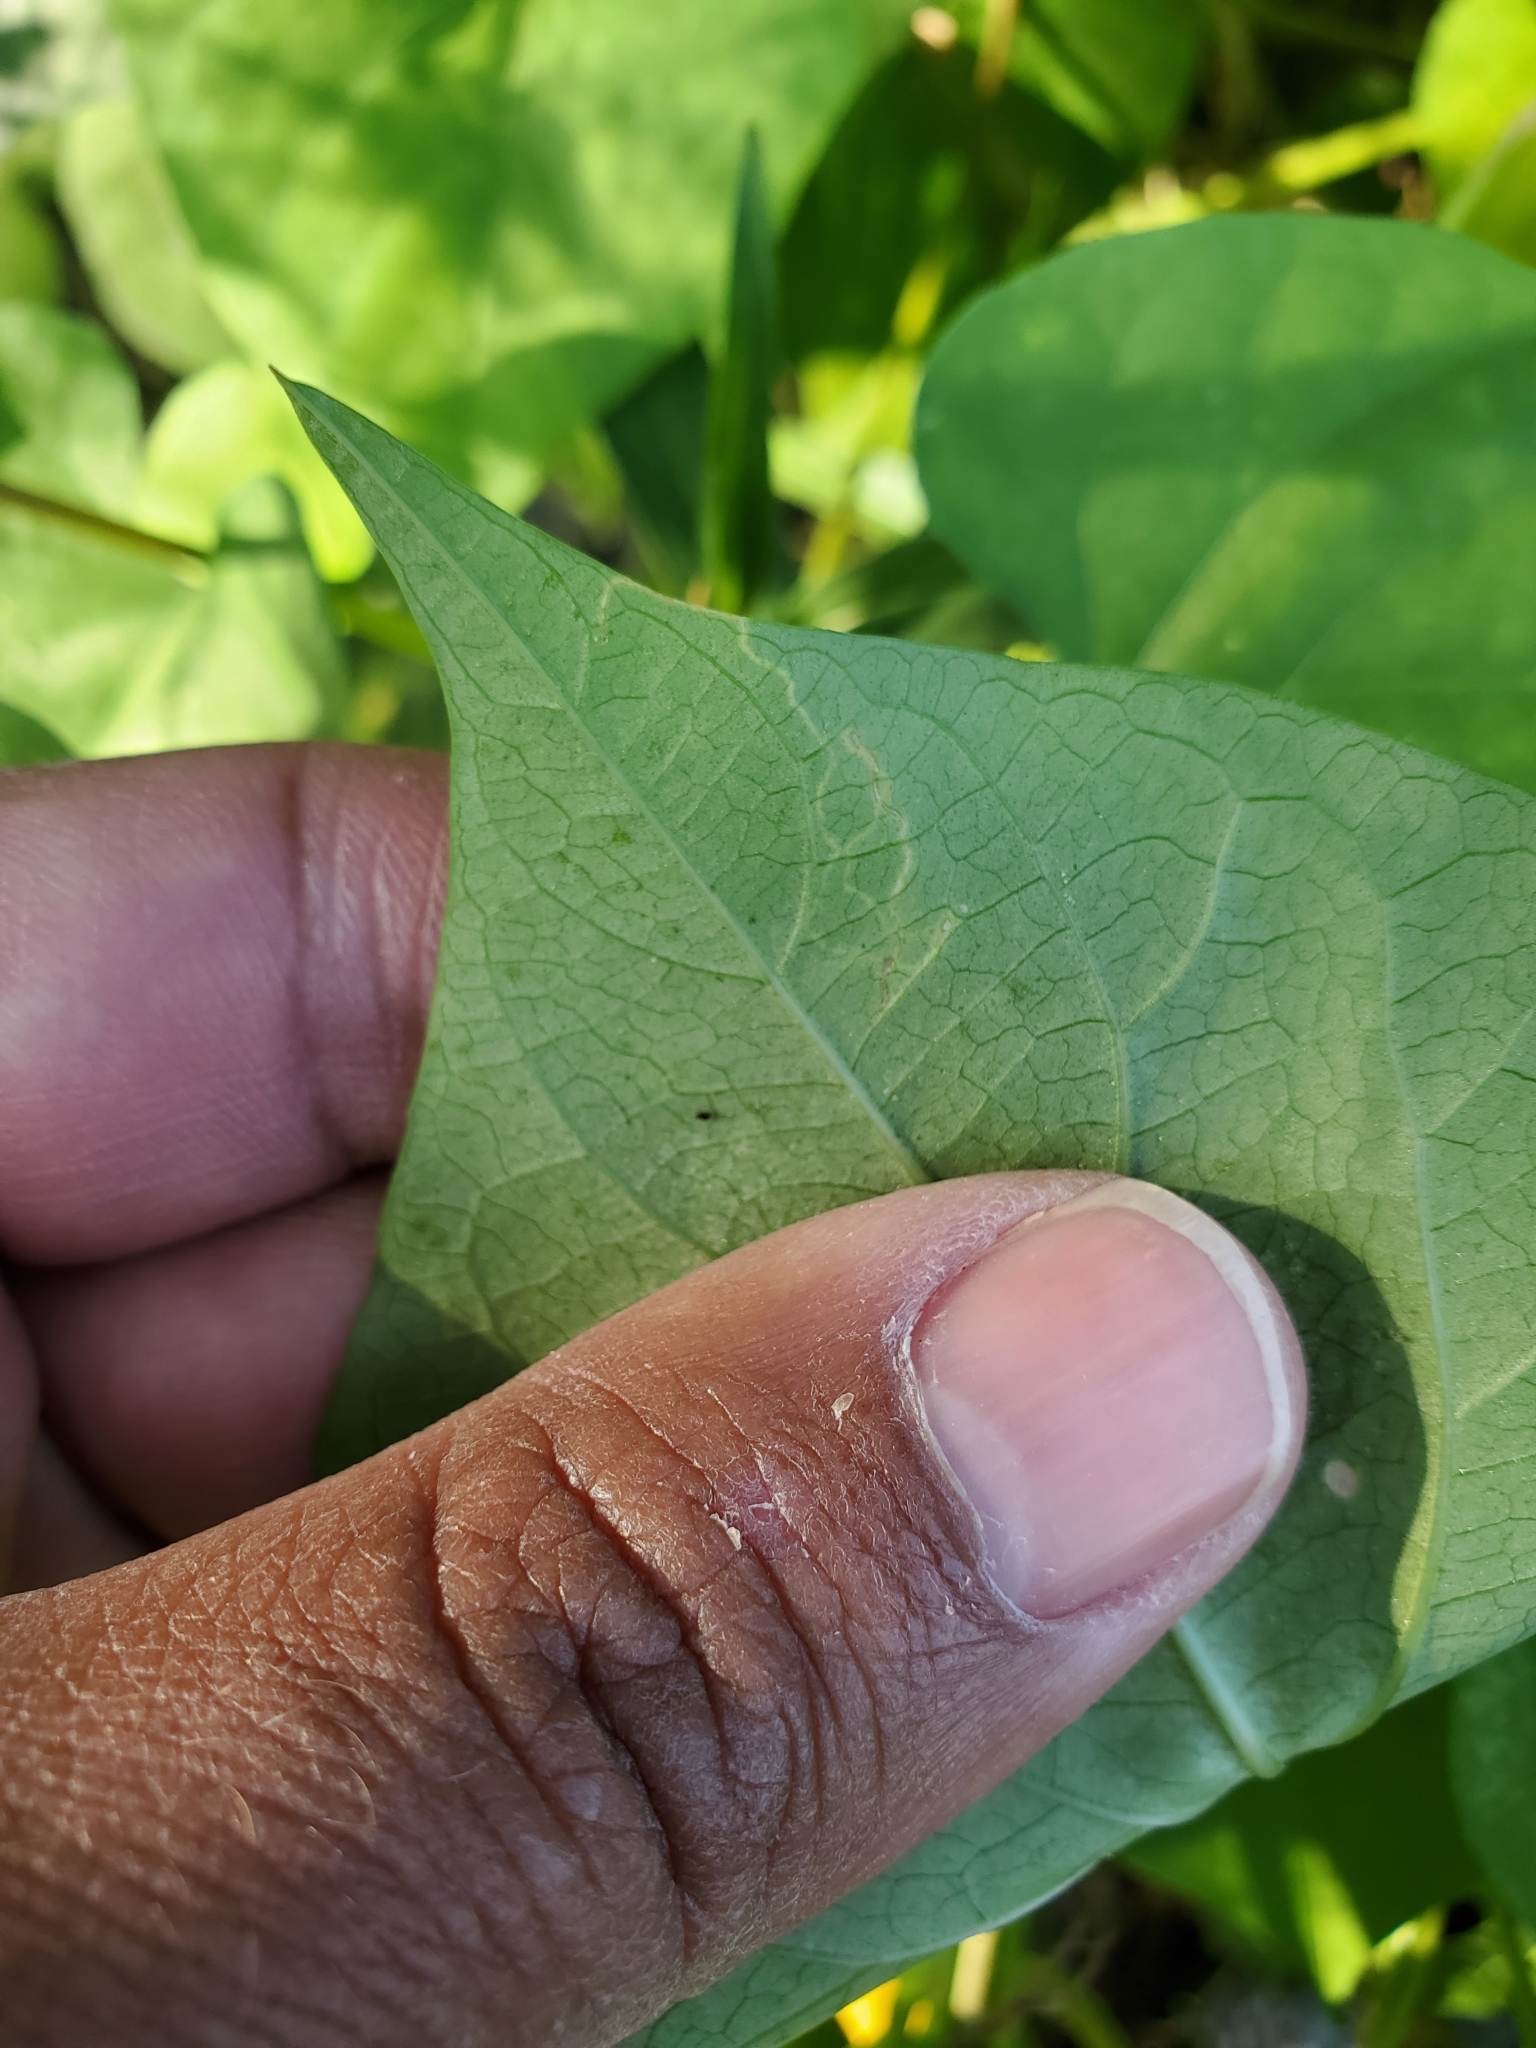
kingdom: Animalia
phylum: Arthropoda
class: Insecta
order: Lepidoptera
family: Bedelliidae
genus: Bedellia
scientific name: Bedellia somnulentella
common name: Morning-glory leafminer moth
